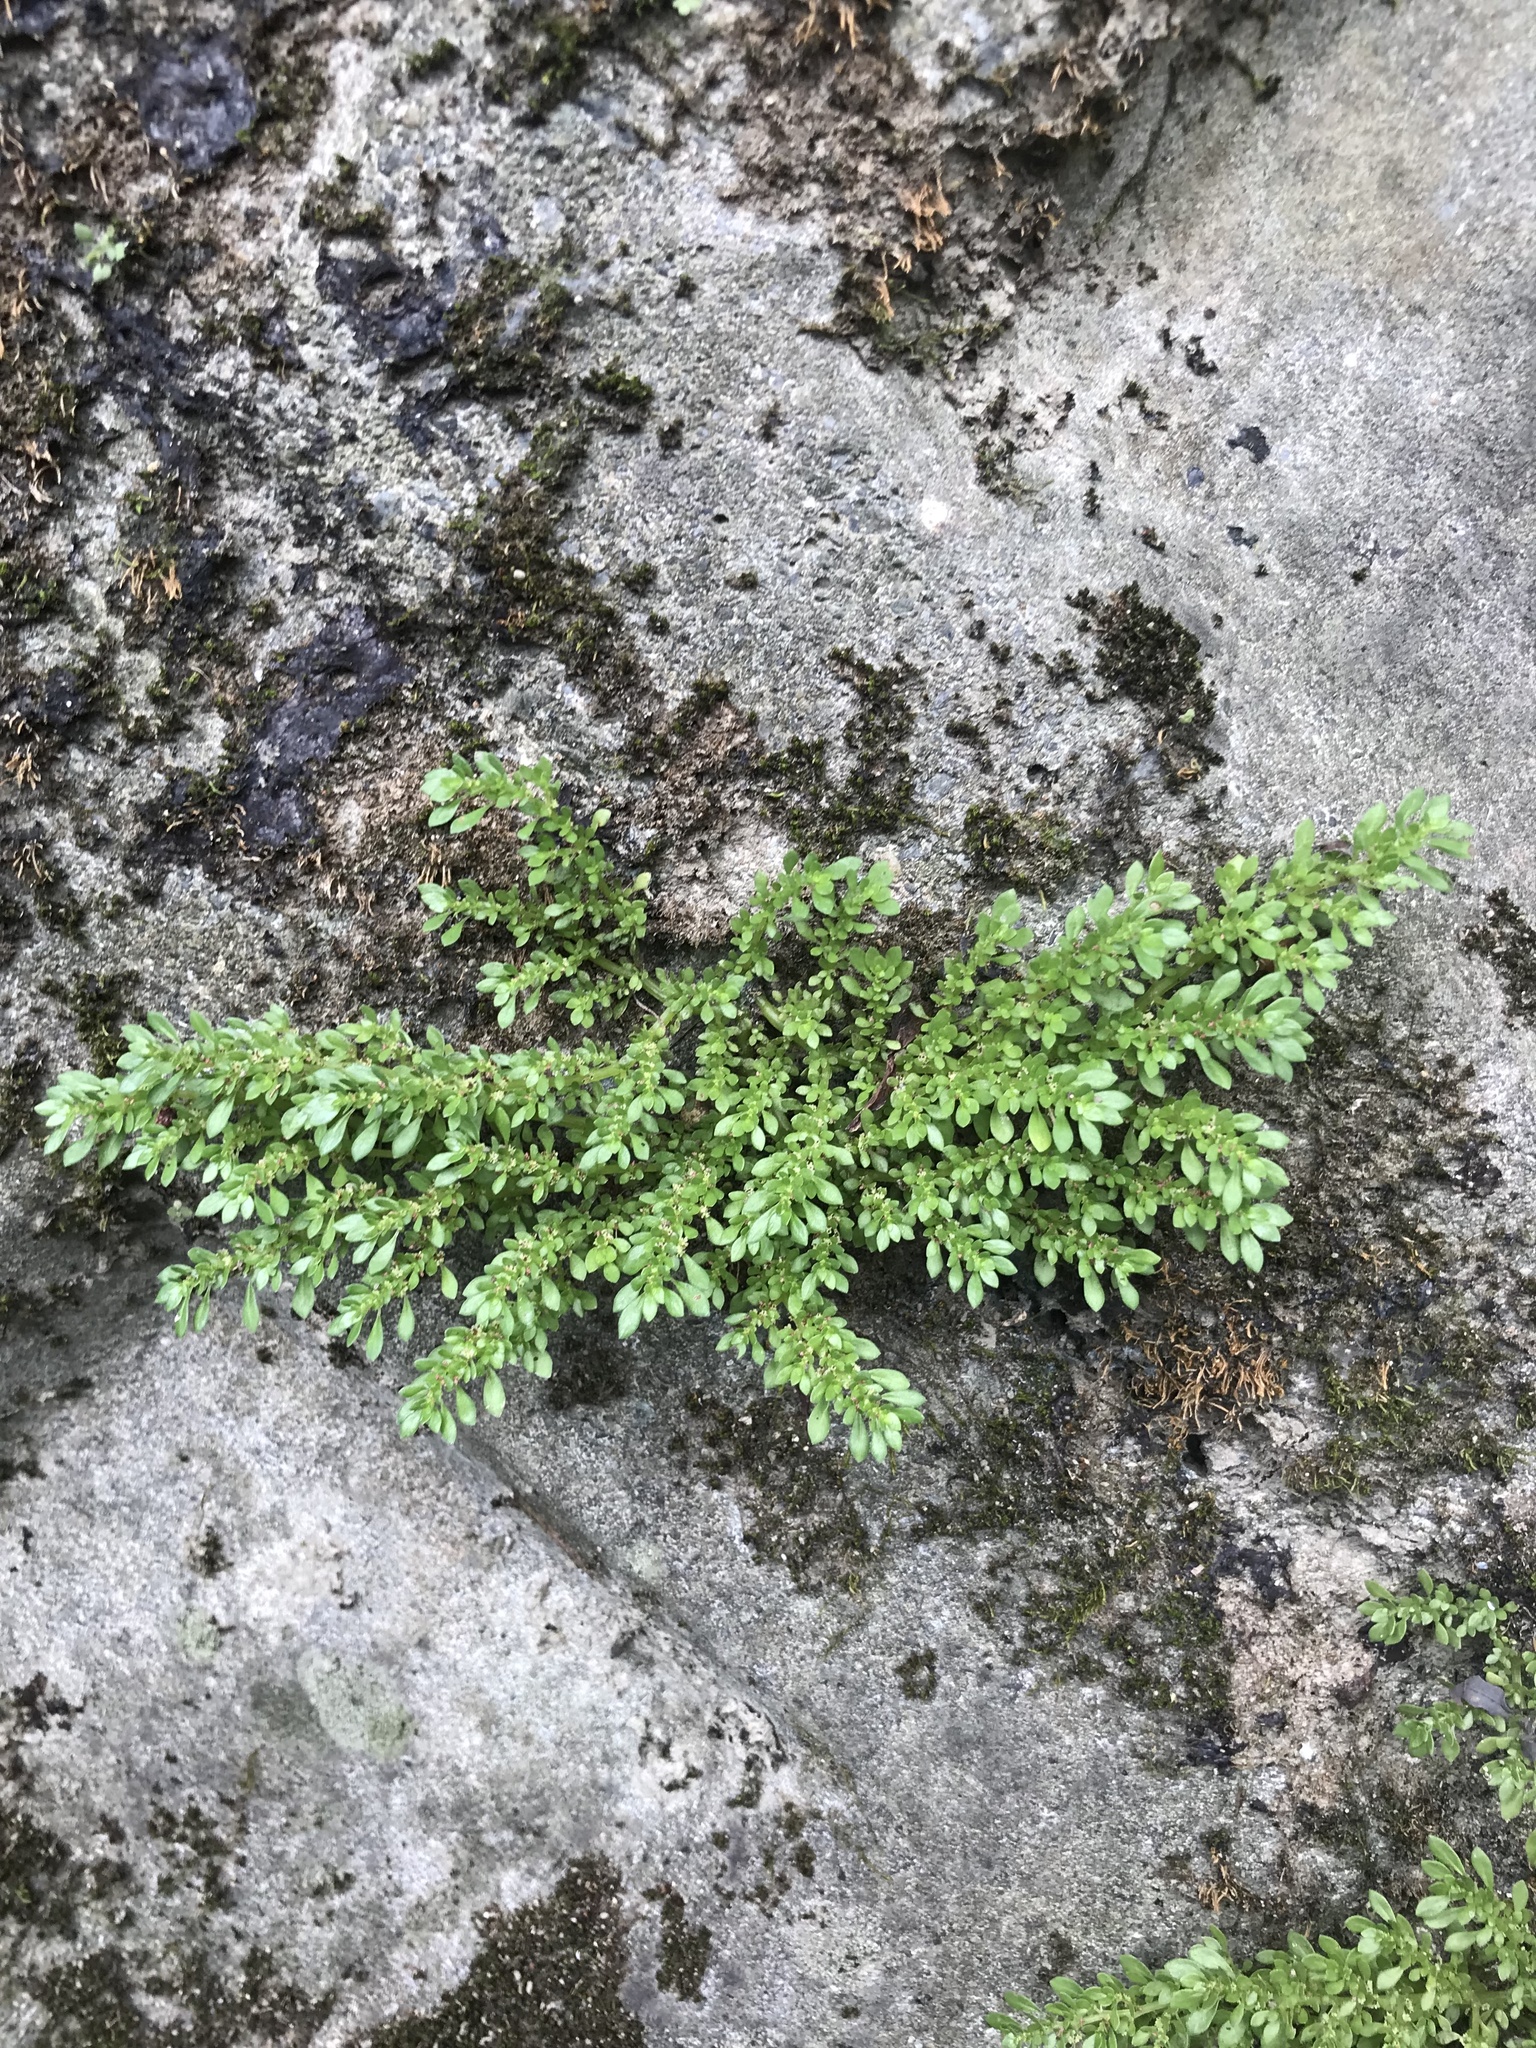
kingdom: Plantae
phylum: Tracheophyta
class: Magnoliopsida
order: Rosales
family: Urticaceae
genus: Pilea
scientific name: Pilea microphylla
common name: Artillery-plant
